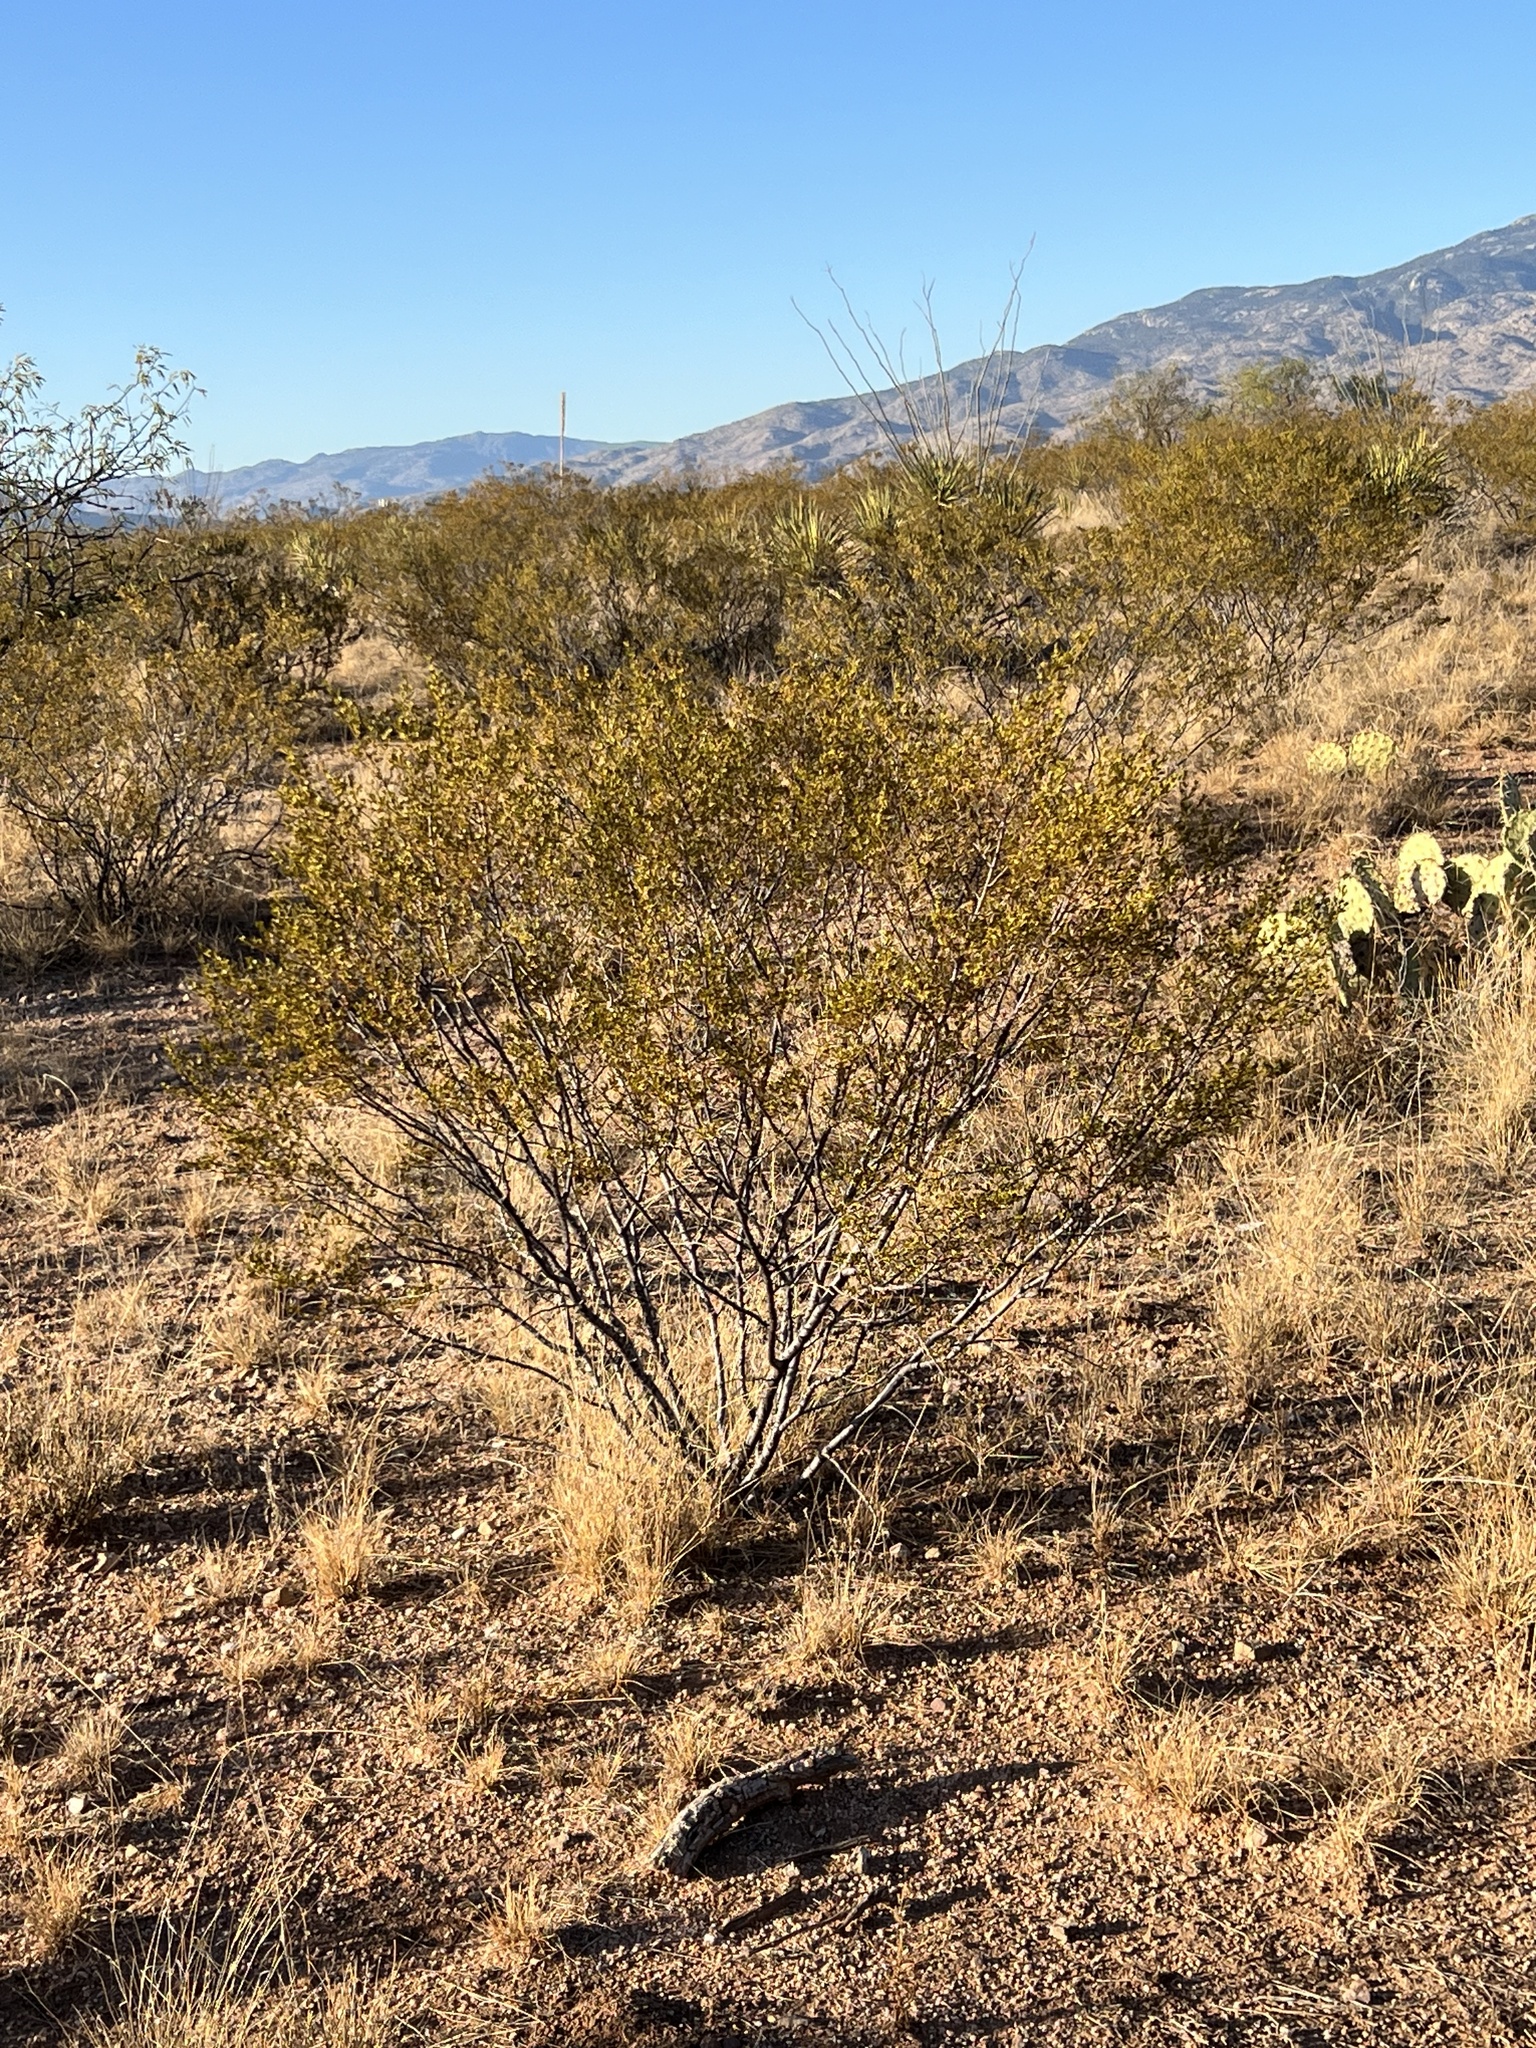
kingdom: Plantae
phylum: Tracheophyta
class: Magnoliopsida
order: Zygophyllales
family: Zygophyllaceae
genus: Larrea
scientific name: Larrea tridentata
